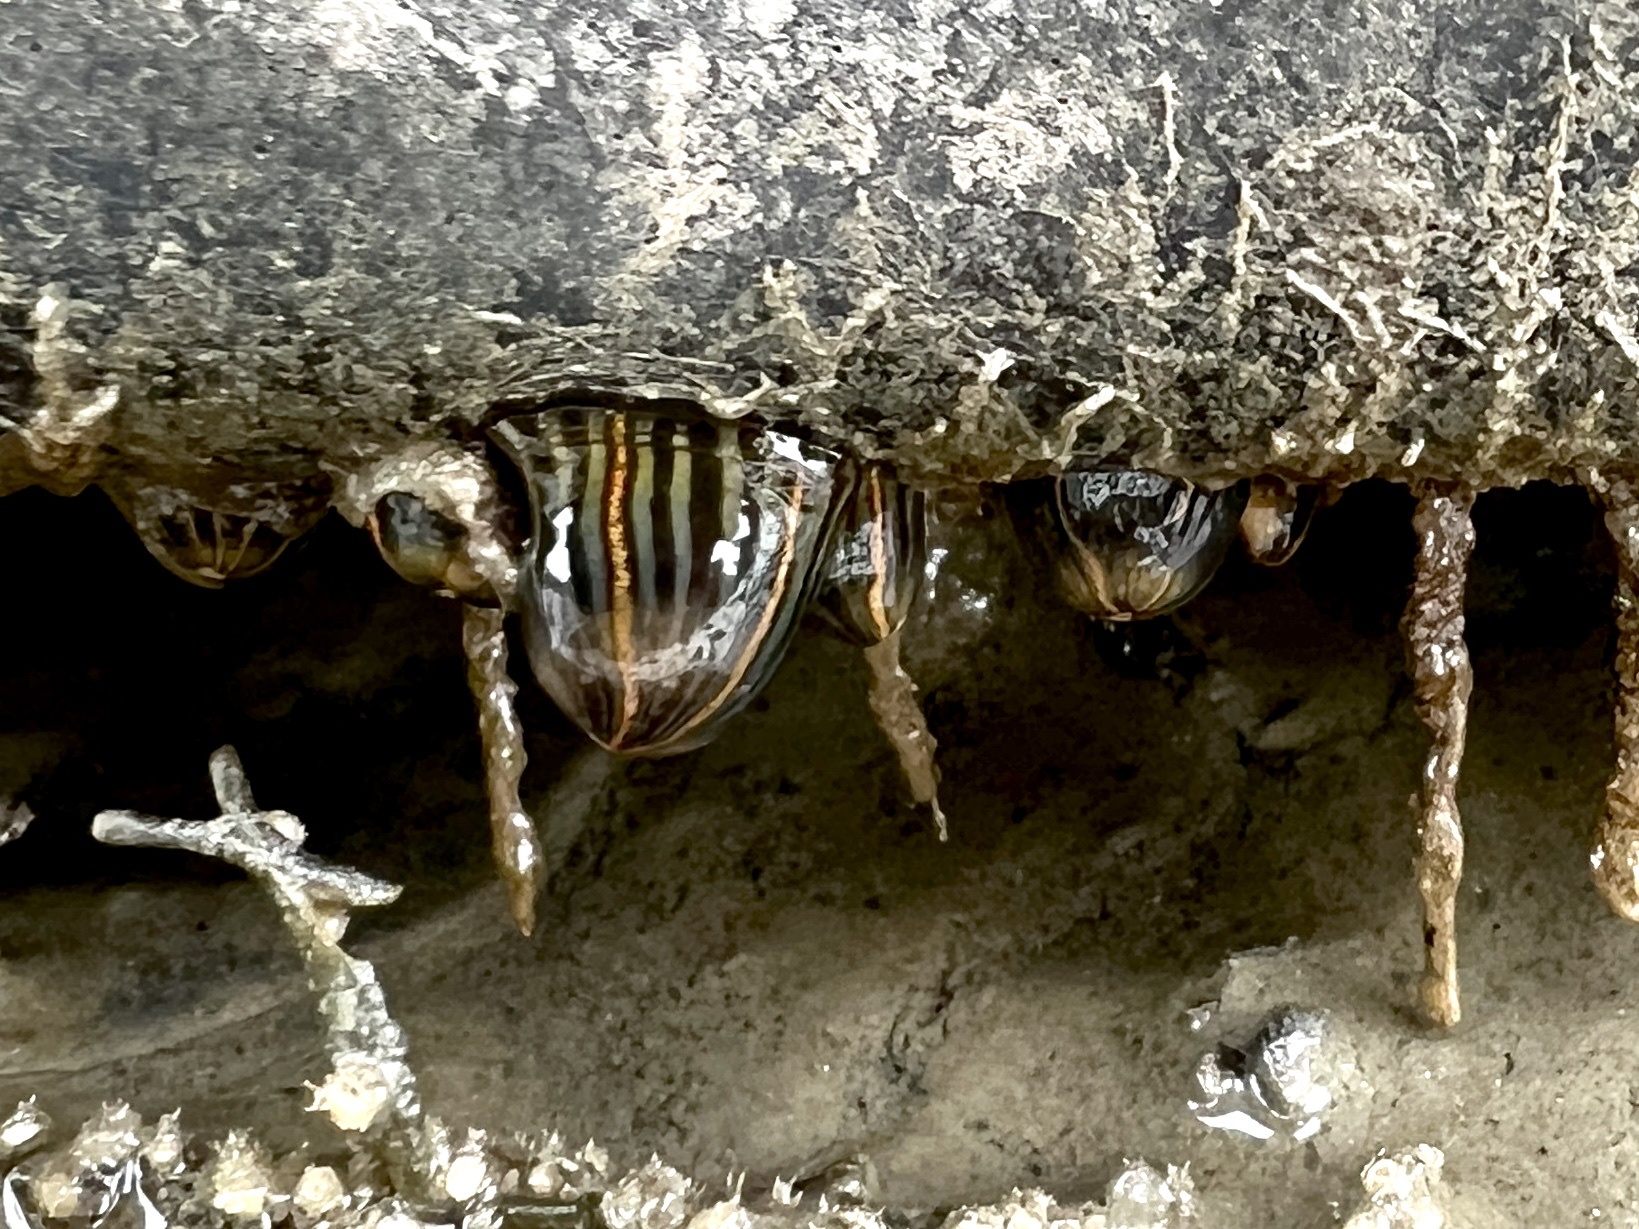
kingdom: Animalia
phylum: Cnidaria
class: Anthozoa
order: Actiniaria
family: Diadumenidae
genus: Diadumene
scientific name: Diadumene lineata
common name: Orange-striped anemone
